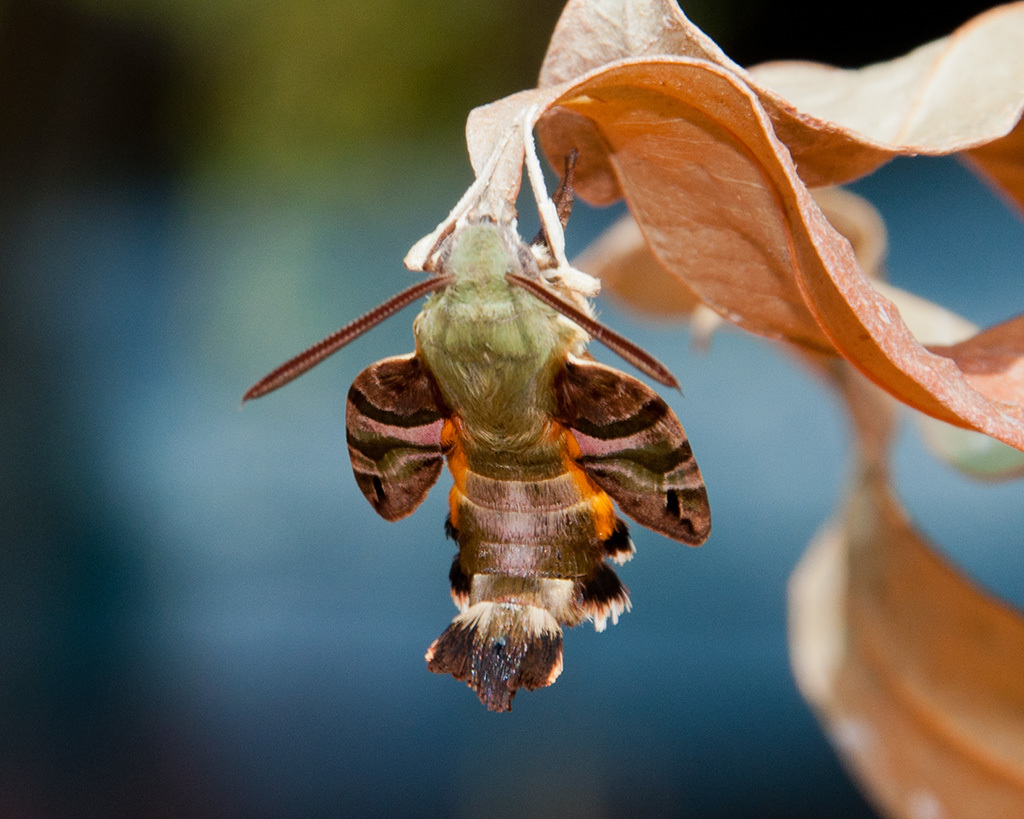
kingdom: Animalia
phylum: Arthropoda
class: Insecta
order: Lepidoptera
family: Sphingidae
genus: Macroglossum
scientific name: Macroglossum trochilus
